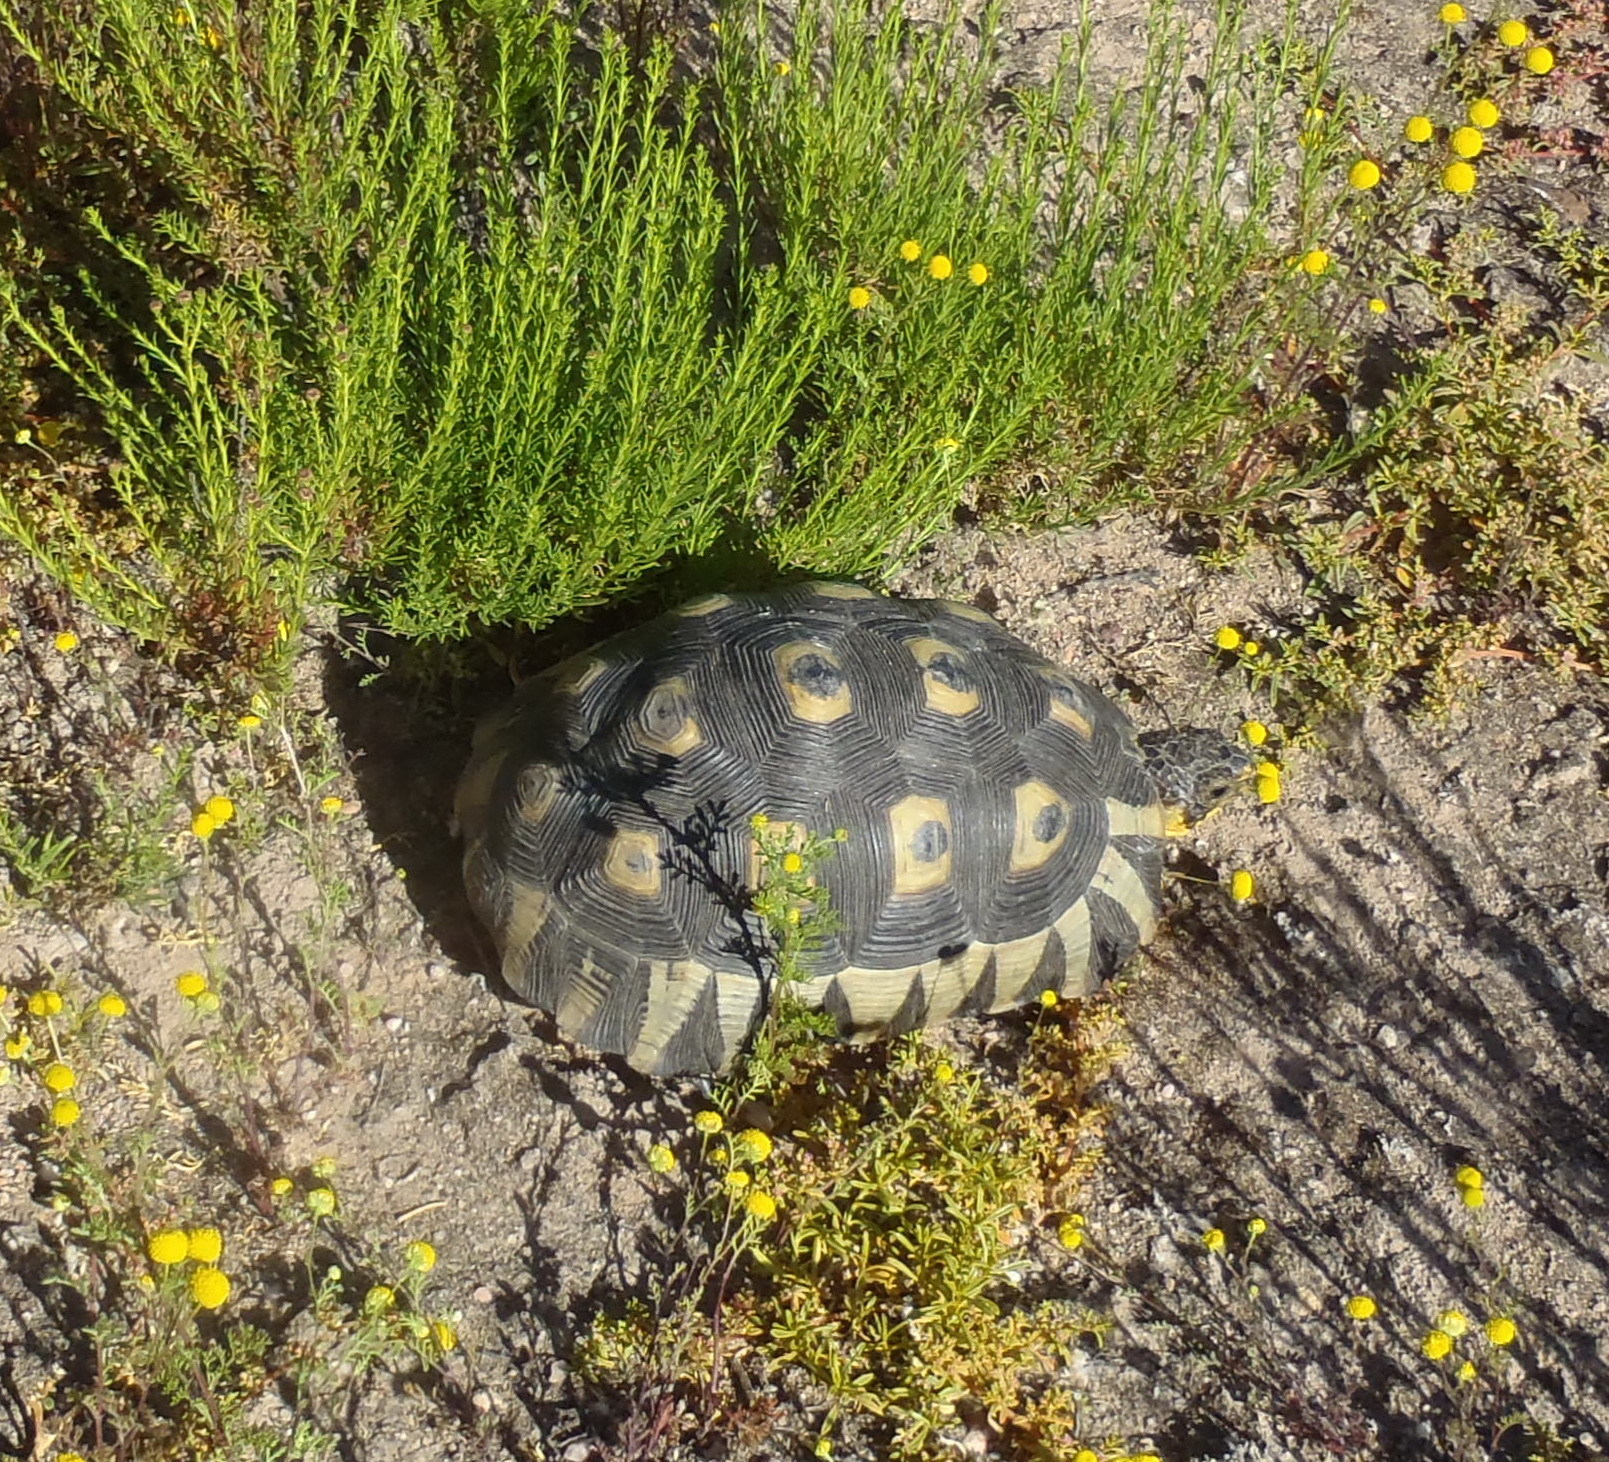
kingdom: Animalia
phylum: Chordata
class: Testudines
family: Testudinidae
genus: Chersina
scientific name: Chersina angulata
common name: South african bowsprit tortoise
